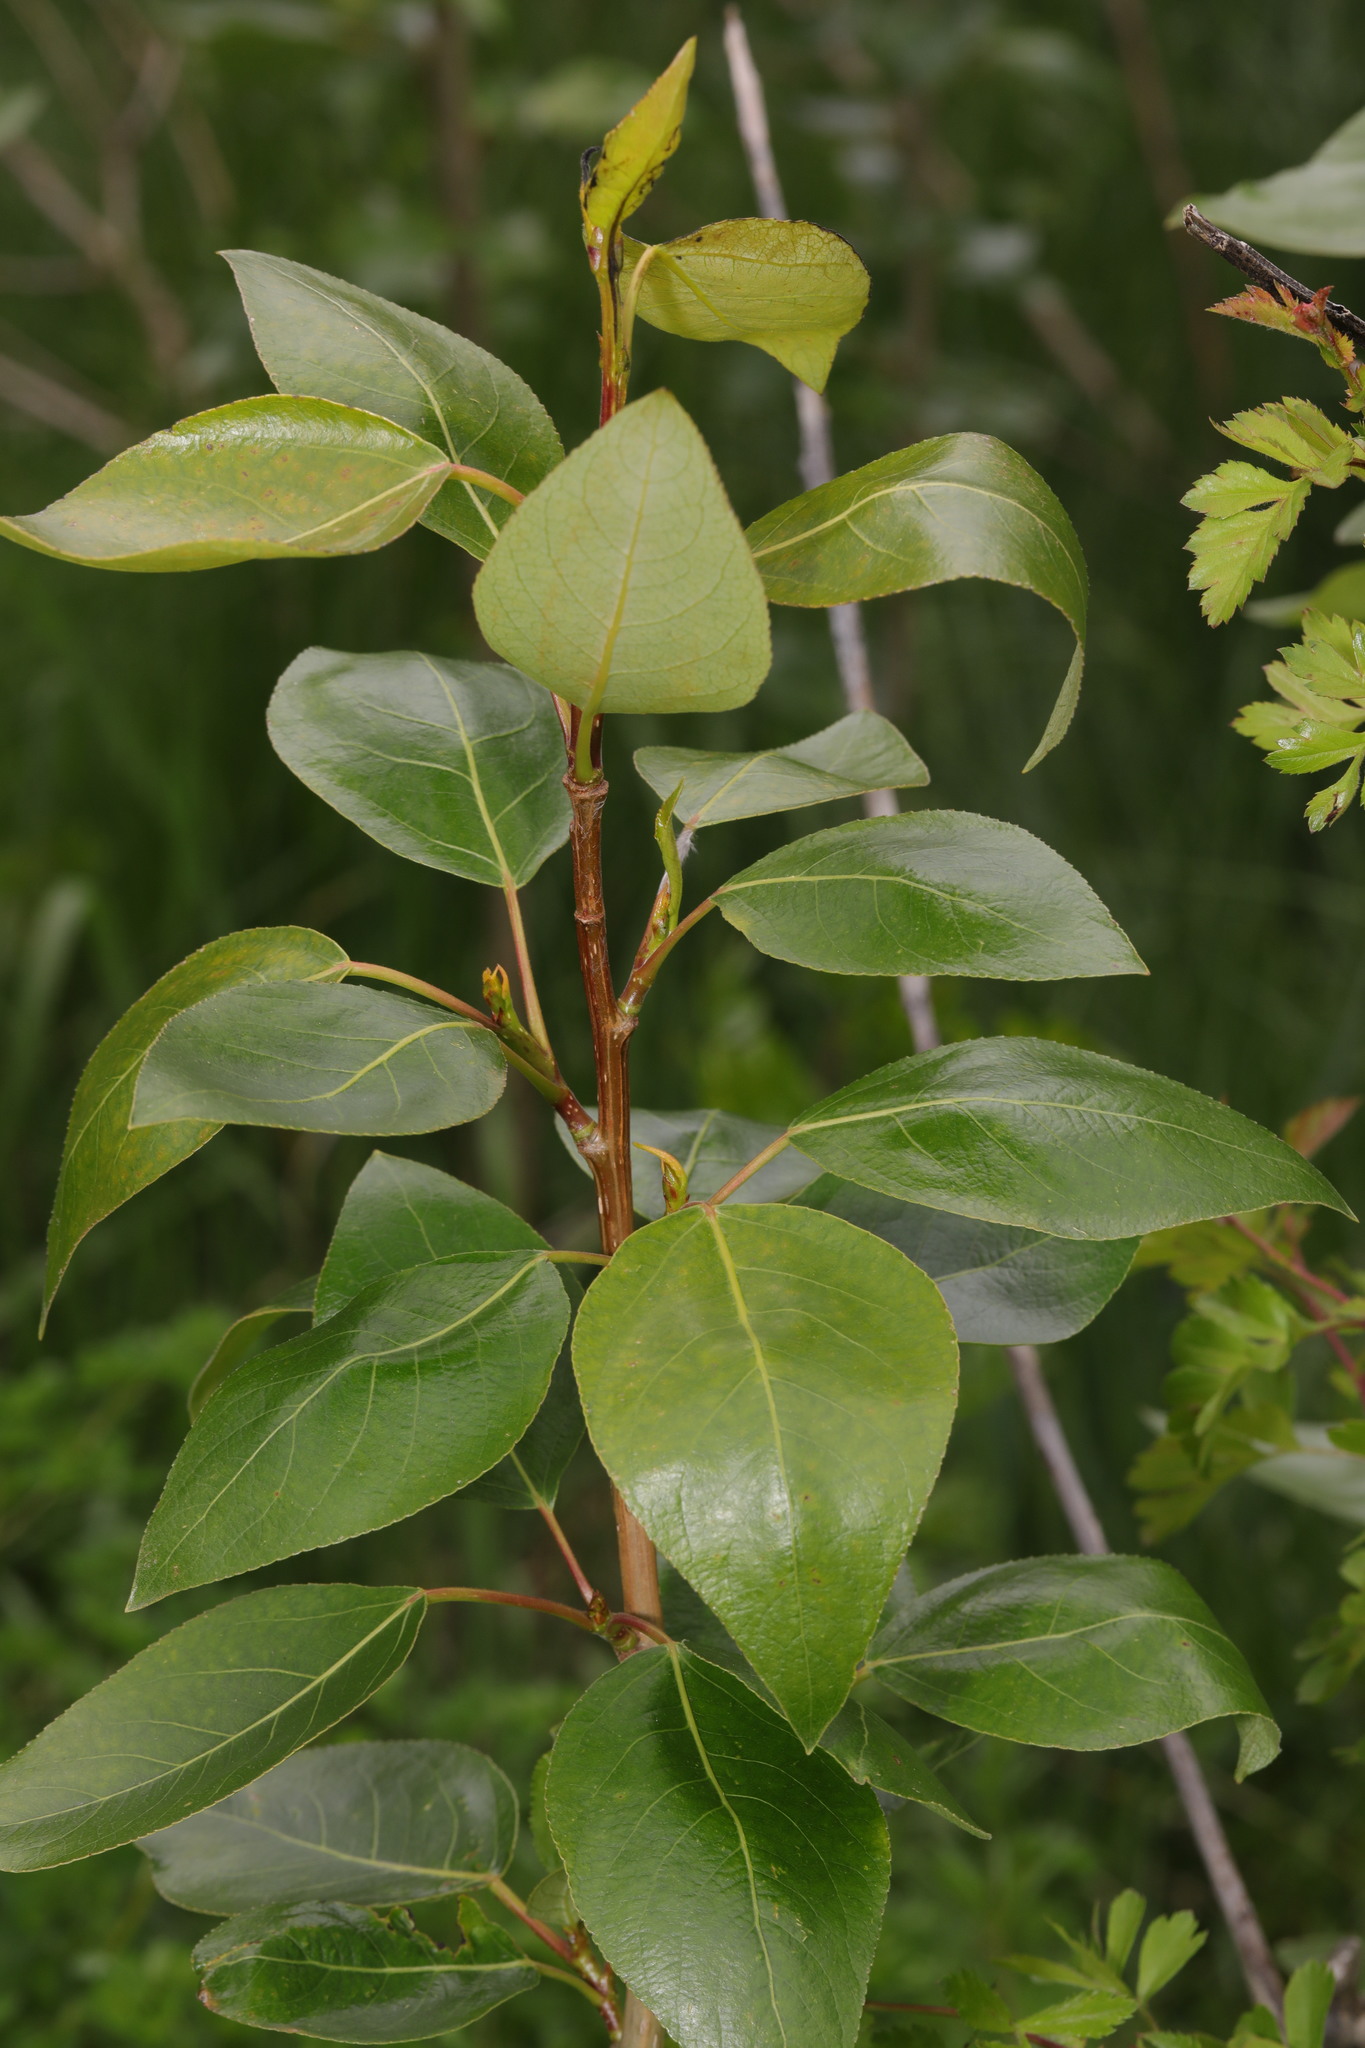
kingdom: Plantae
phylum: Tracheophyta
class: Magnoliopsida
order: Malpighiales
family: Salicaceae
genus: Populus
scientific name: Populus trichocarpa
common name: Black cottonwood
